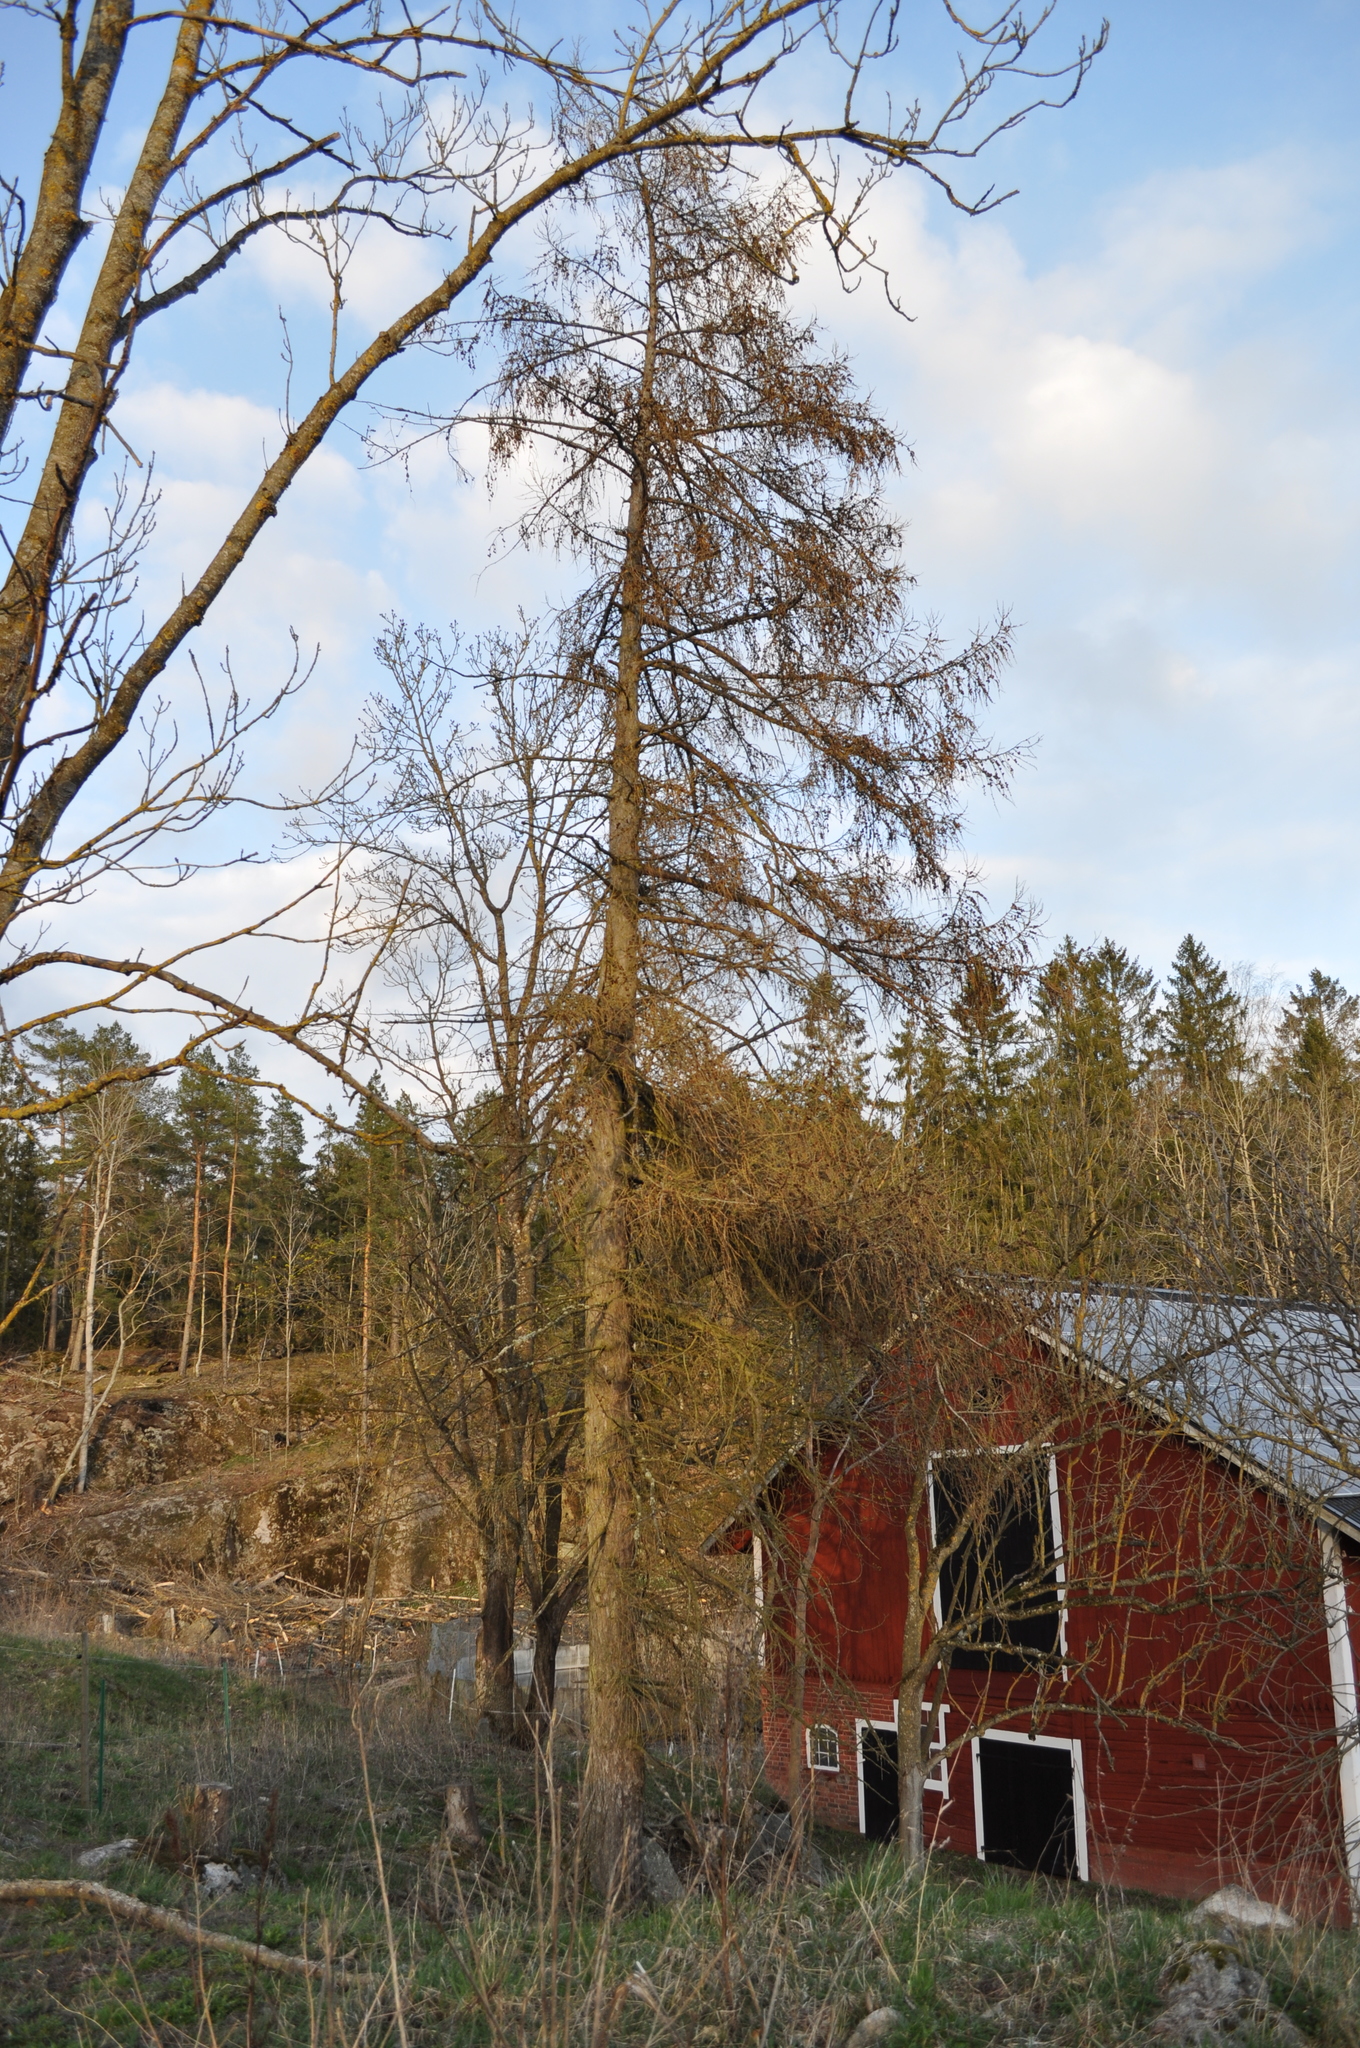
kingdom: Plantae
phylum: Tracheophyta
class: Pinopsida
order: Pinales
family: Pinaceae
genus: Larix
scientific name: Larix decidua
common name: European larch
